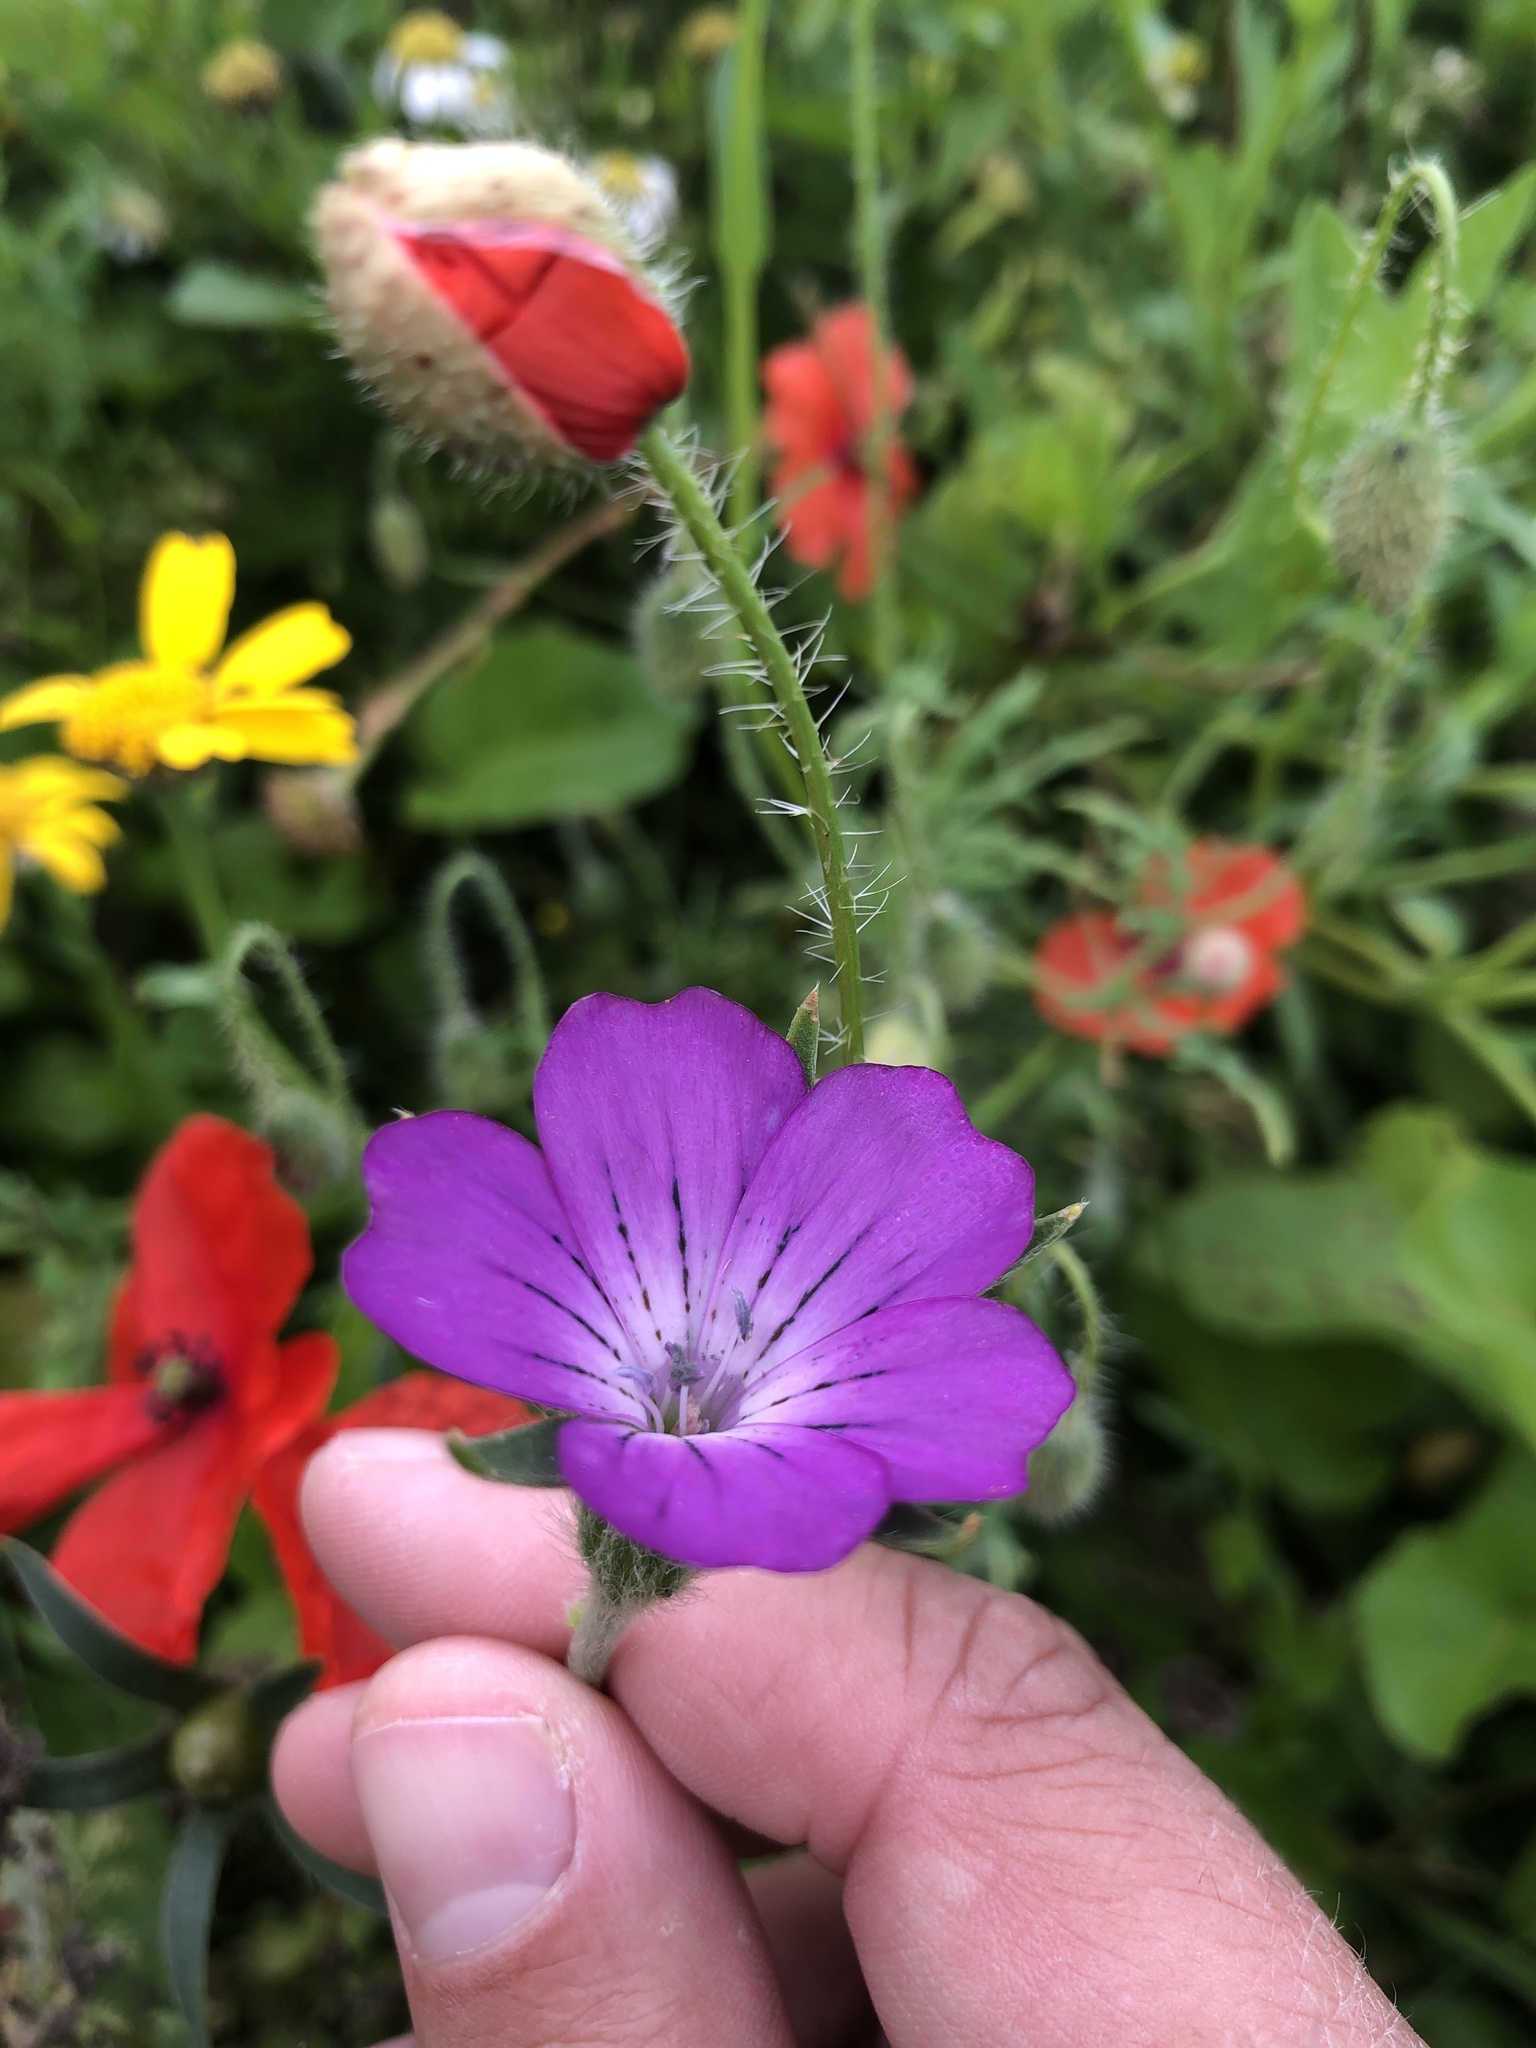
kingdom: Plantae
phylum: Tracheophyta
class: Magnoliopsida
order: Caryophyllales
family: Caryophyllaceae
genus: Agrostemma
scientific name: Agrostemma githago
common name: Common corncockle
